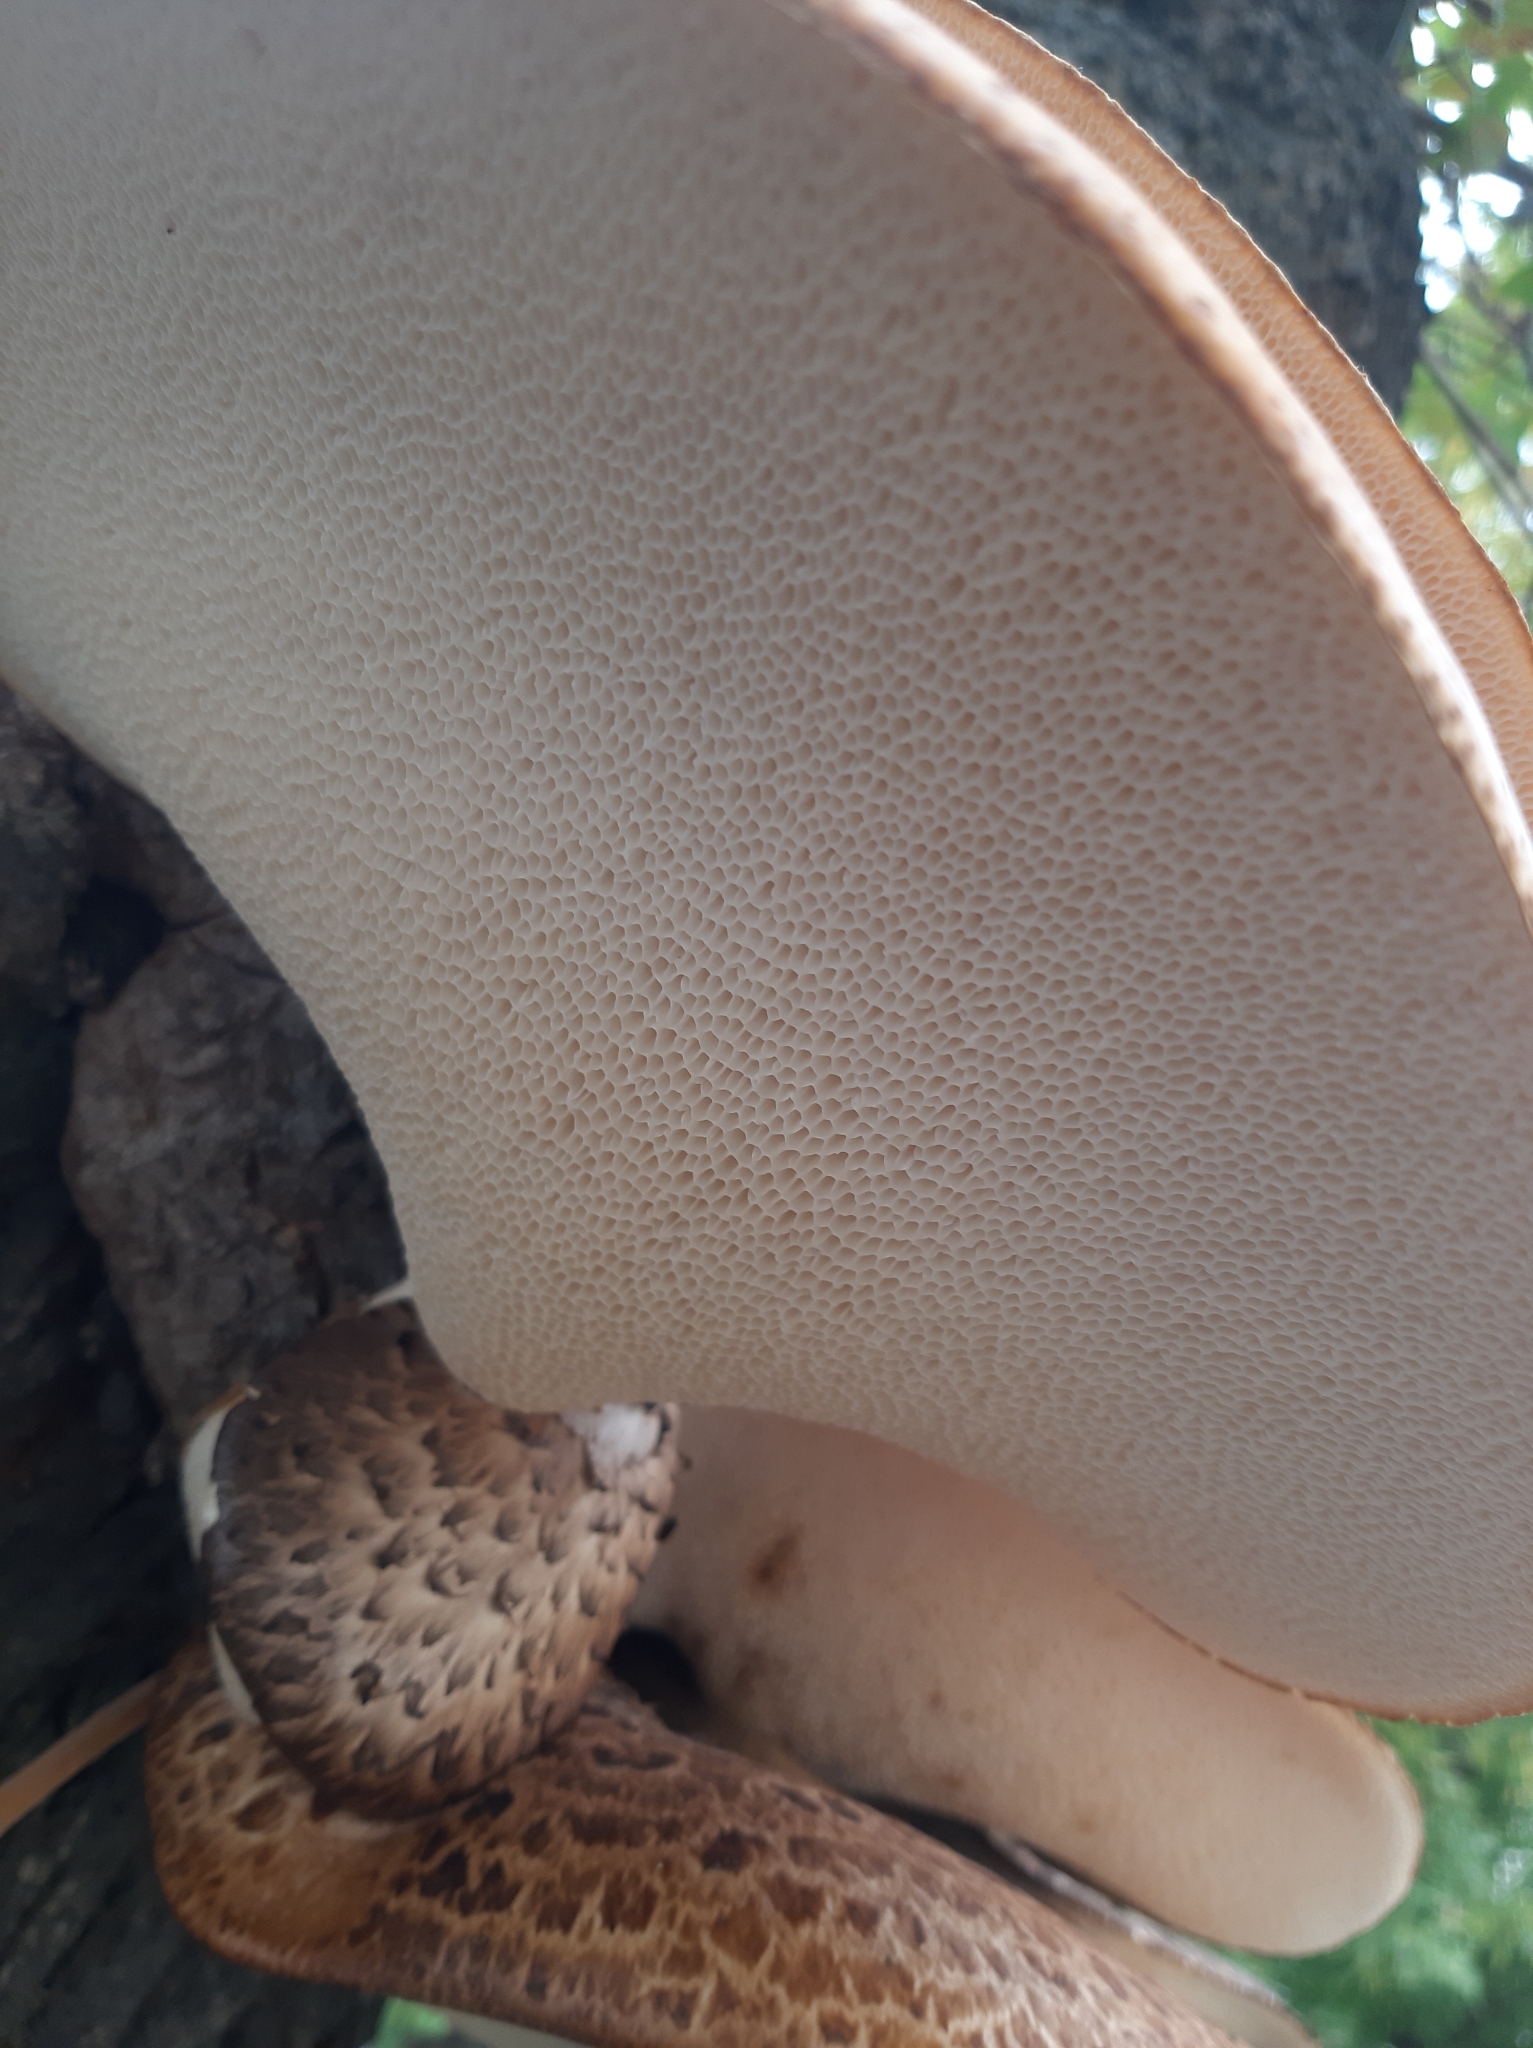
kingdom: Fungi
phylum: Basidiomycota
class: Agaricomycetes
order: Polyporales
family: Polyporaceae
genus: Cerioporus
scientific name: Cerioporus squamosus
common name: Dryad's saddle
